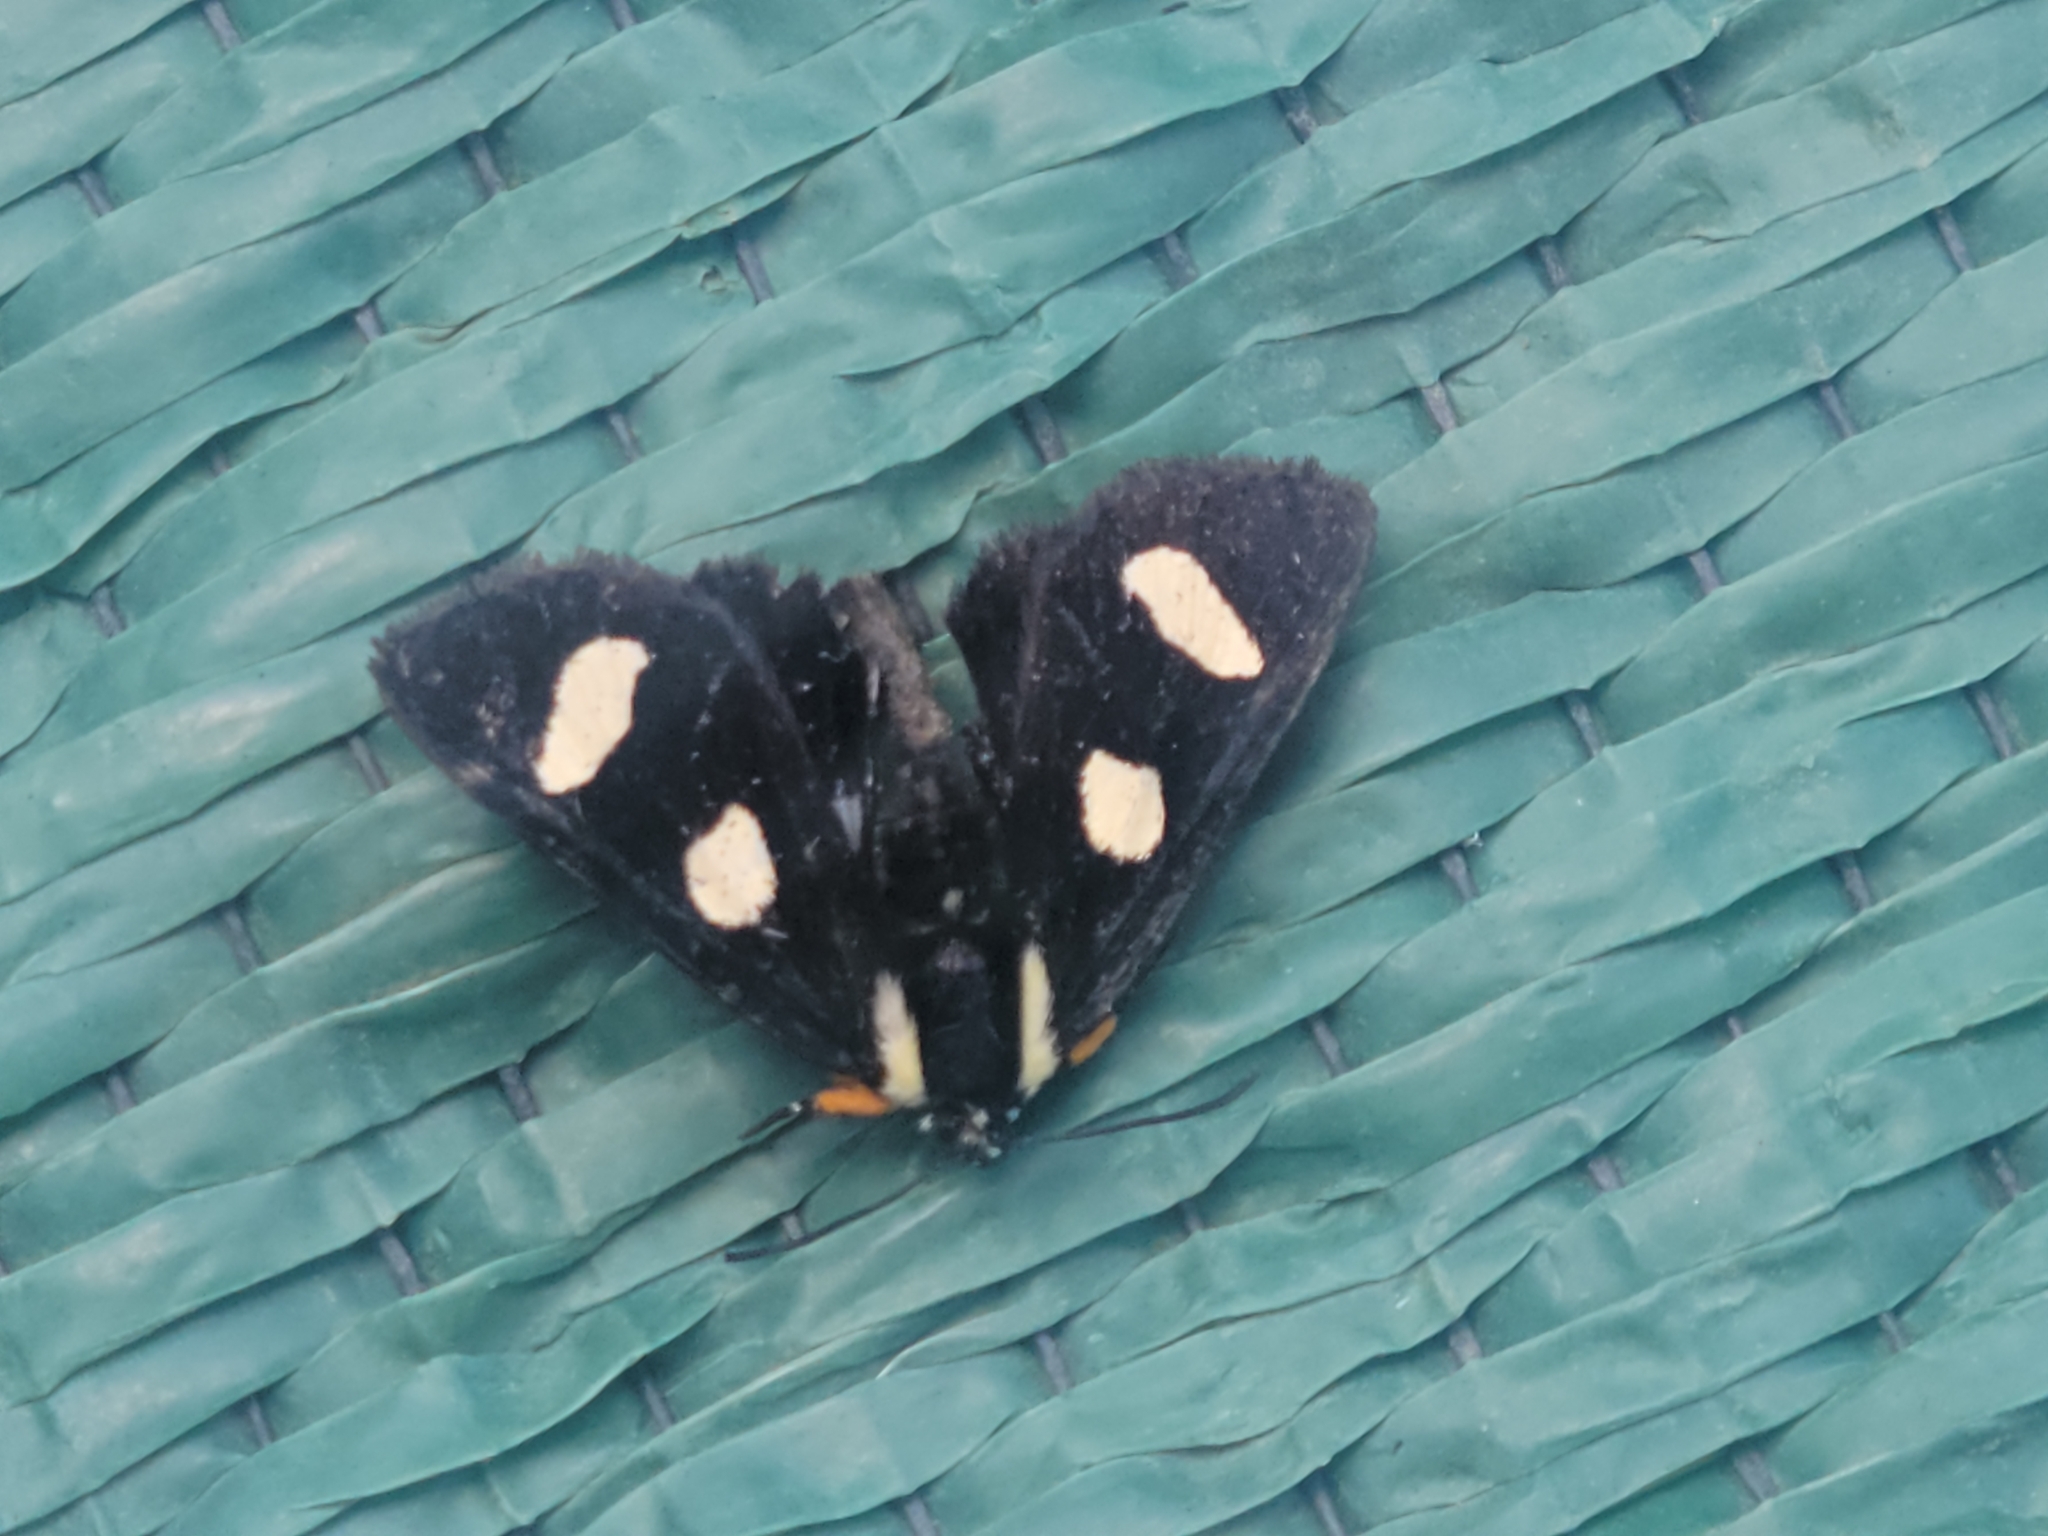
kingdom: Animalia
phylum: Arthropoda
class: Insecta
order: Lepidoptera
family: Noctuidae
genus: Alypia
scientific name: Alypia octomaculata
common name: Eight-spotted forester
